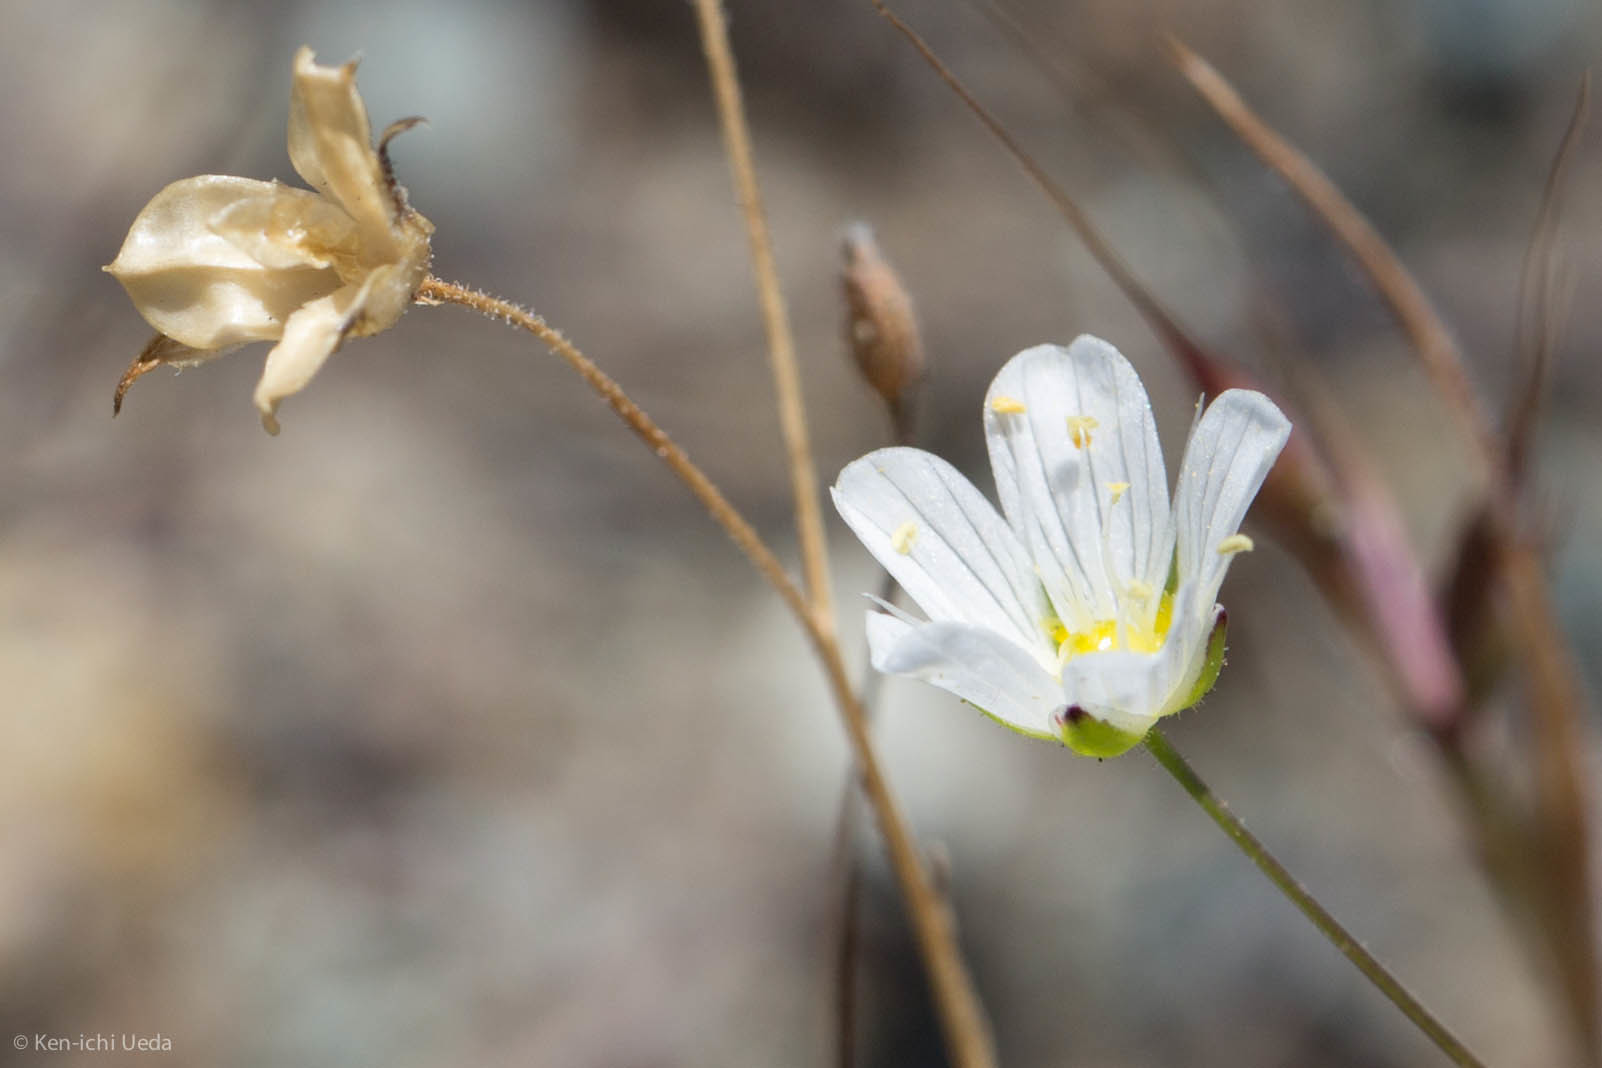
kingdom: Plantae
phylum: Tracheophyta
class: Magnoliopsida
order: Caryophyllales
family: Caryophyllaceae
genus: Sabulina
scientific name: Sabulina douglasii
